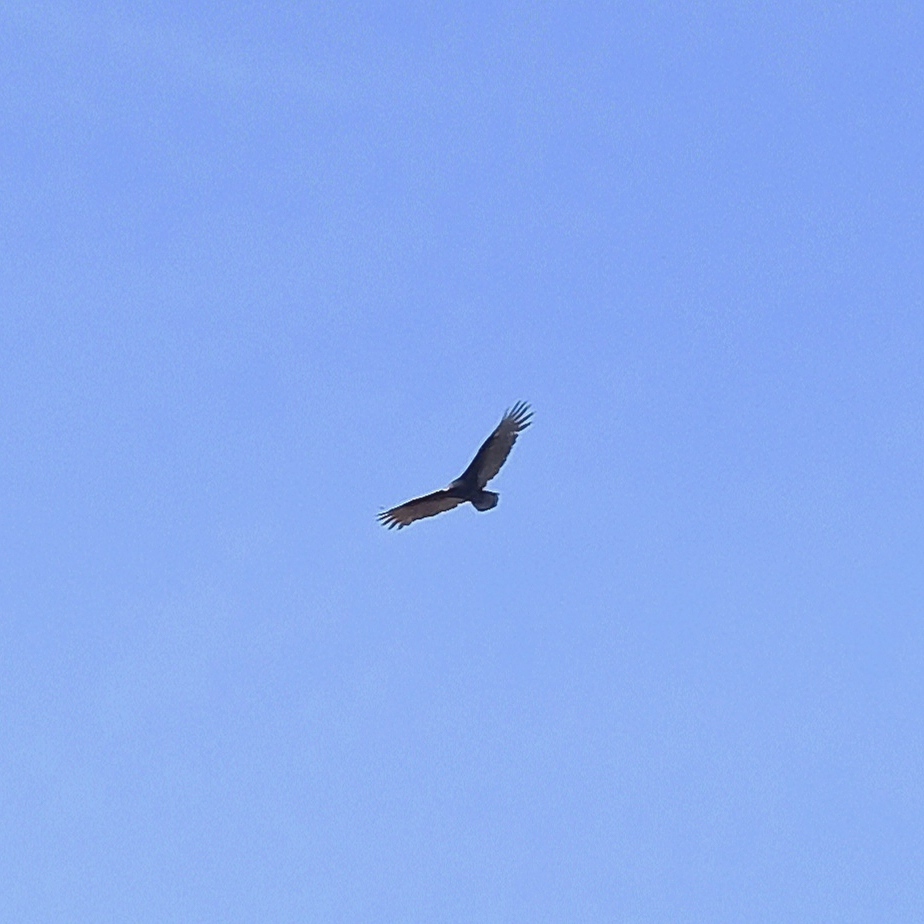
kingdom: Animalia
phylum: Chordata
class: Aves
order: Accipitriformes
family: Cathartidae
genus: Cathartes
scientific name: Cathartes aura
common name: Turkey vulture
